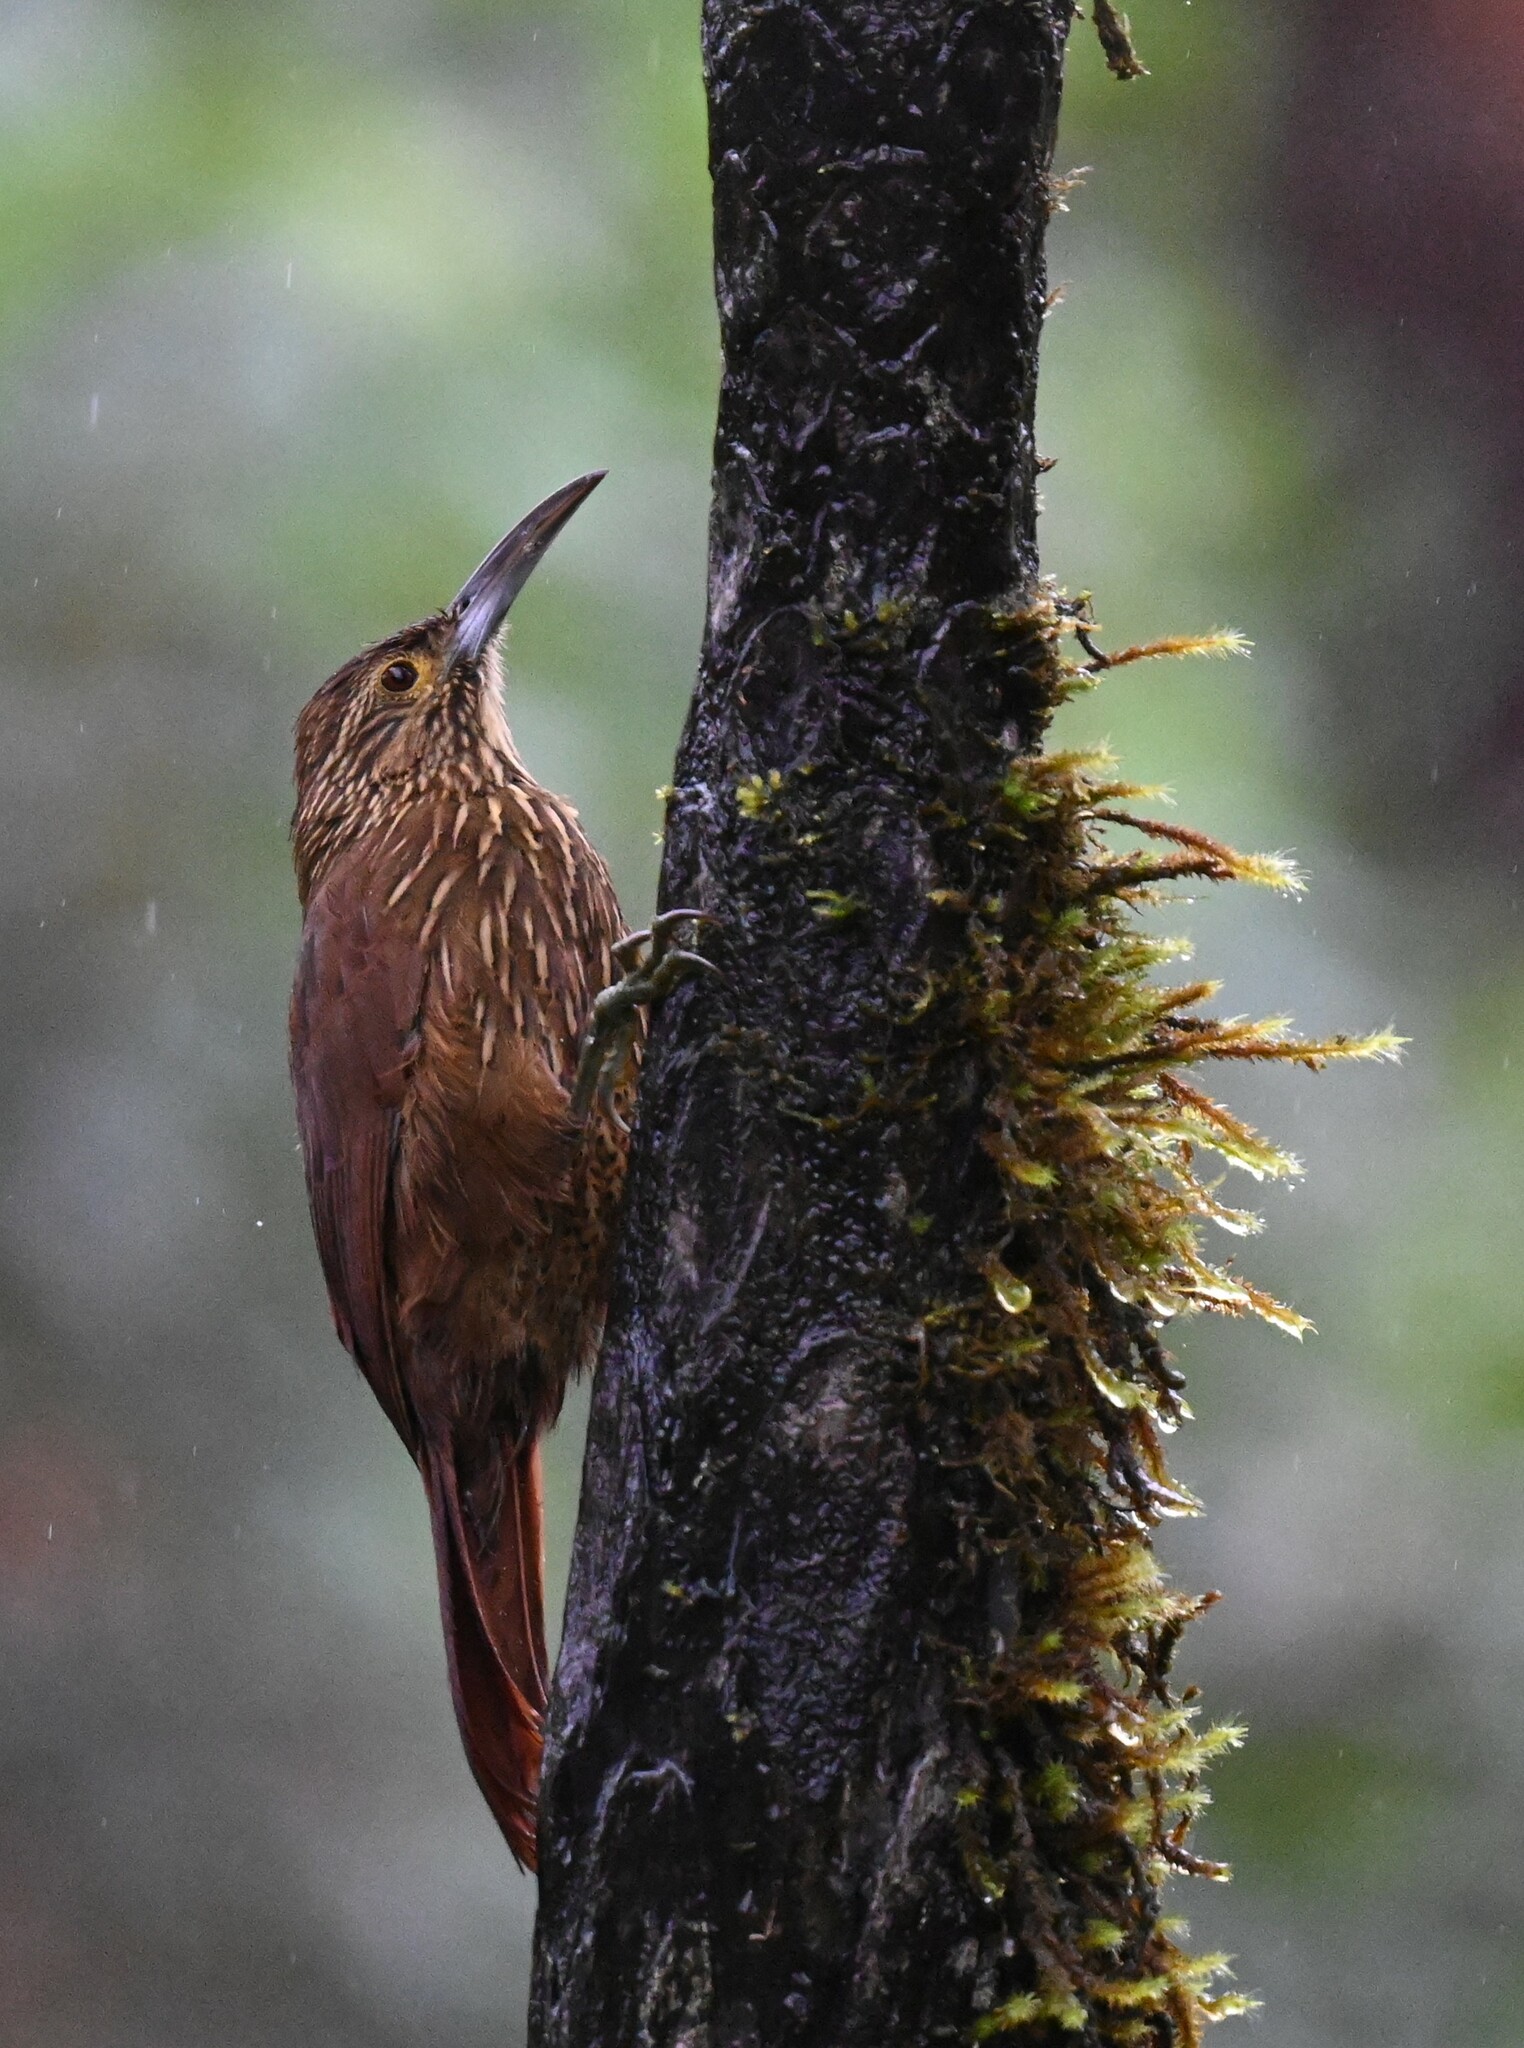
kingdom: Animalia
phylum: Chordata
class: Aves
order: Passeriformes
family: Furnariidae
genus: Xiphocolaptes
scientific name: Xiphocolaptes promeropirhynchus
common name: Strong-billed woodcreeper
